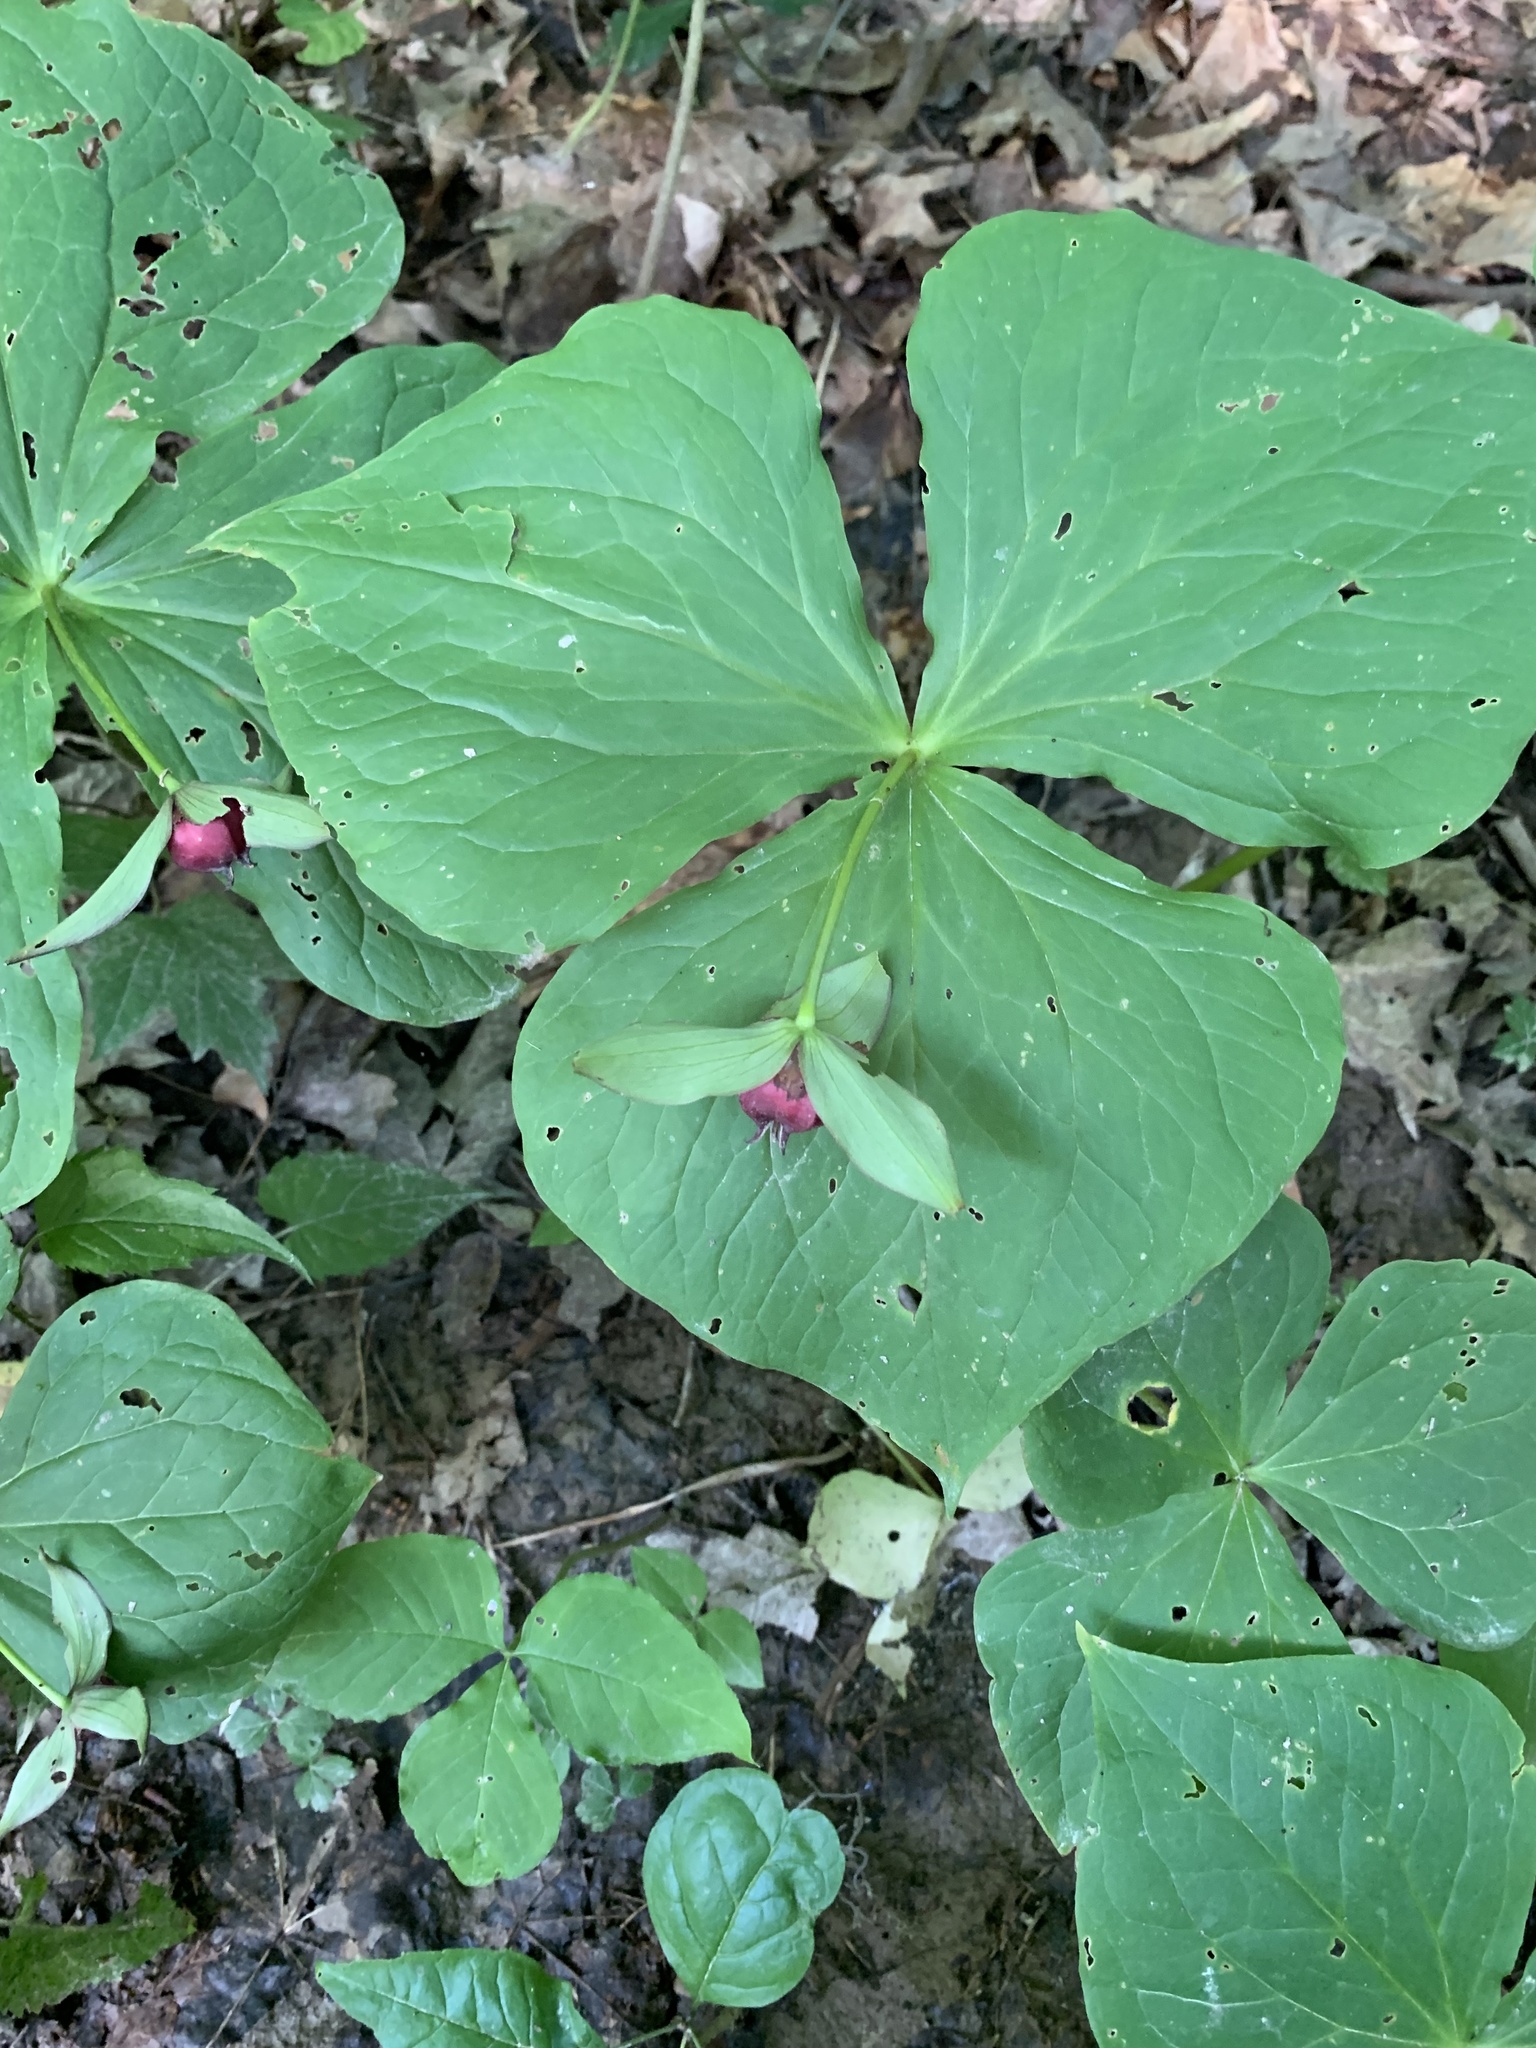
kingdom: Plantae
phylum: Tracheophyta
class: Liliopsida
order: Liliales
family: Melanthiaceae
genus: Trillium
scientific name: Trillium erectum
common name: Purple trillium
